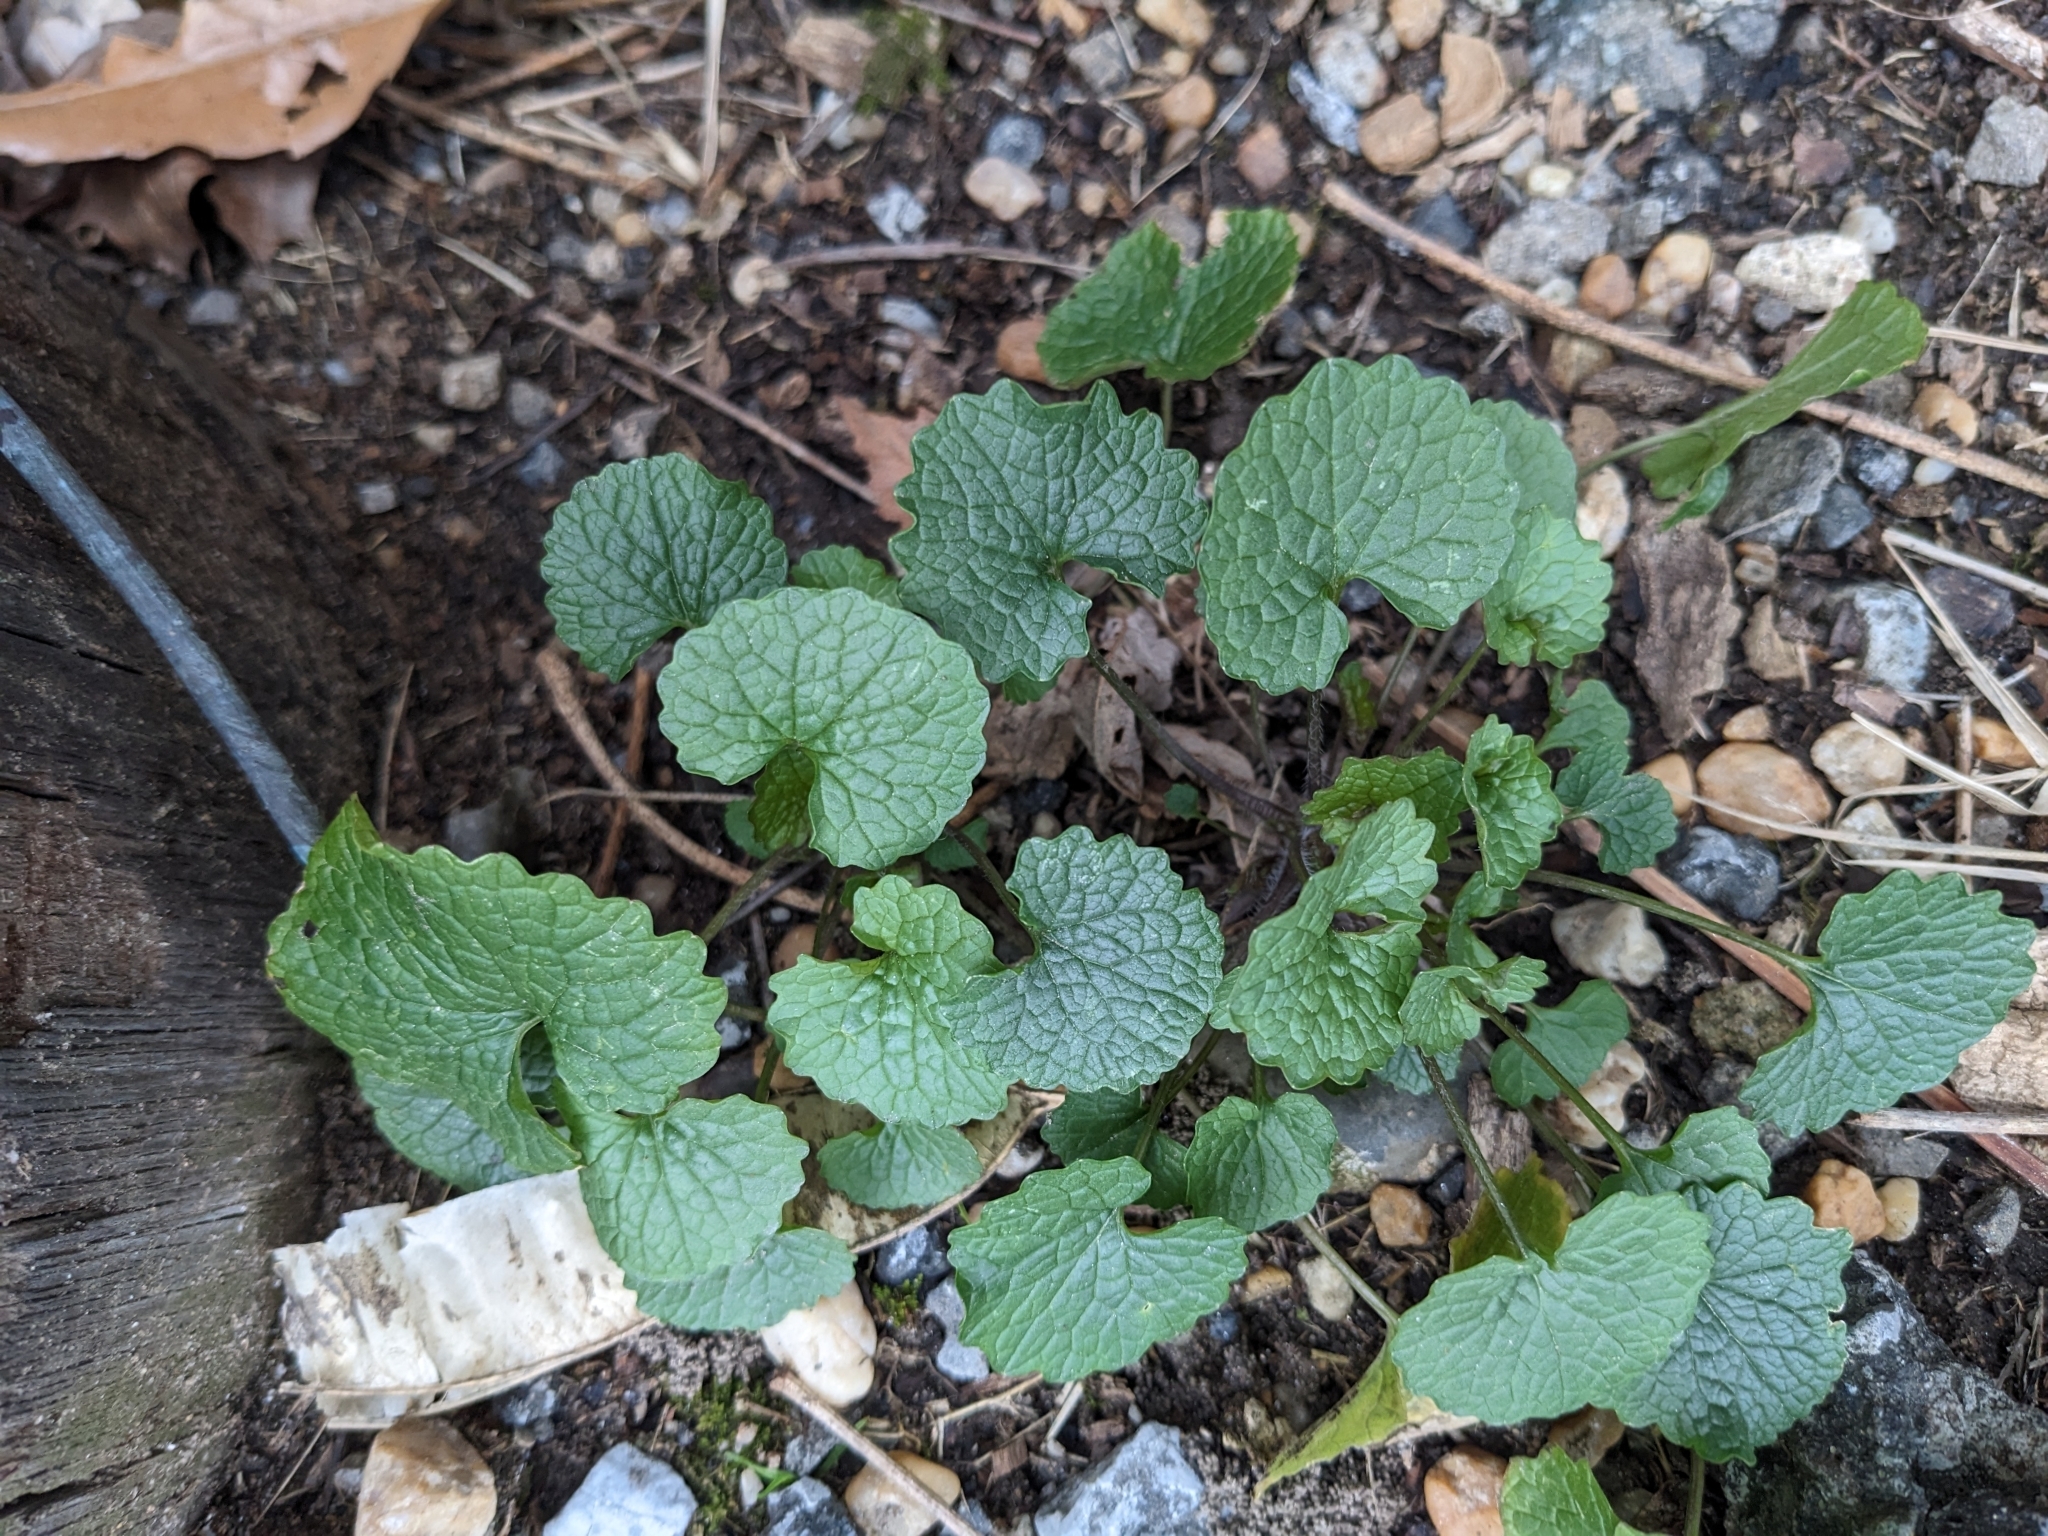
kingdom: Plantae
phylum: Tracheophyta
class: Magnoliopsida
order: Brassicales
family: Brassicaceae
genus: Alliaria
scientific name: Alliaria petiolata
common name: Garlic mustard
